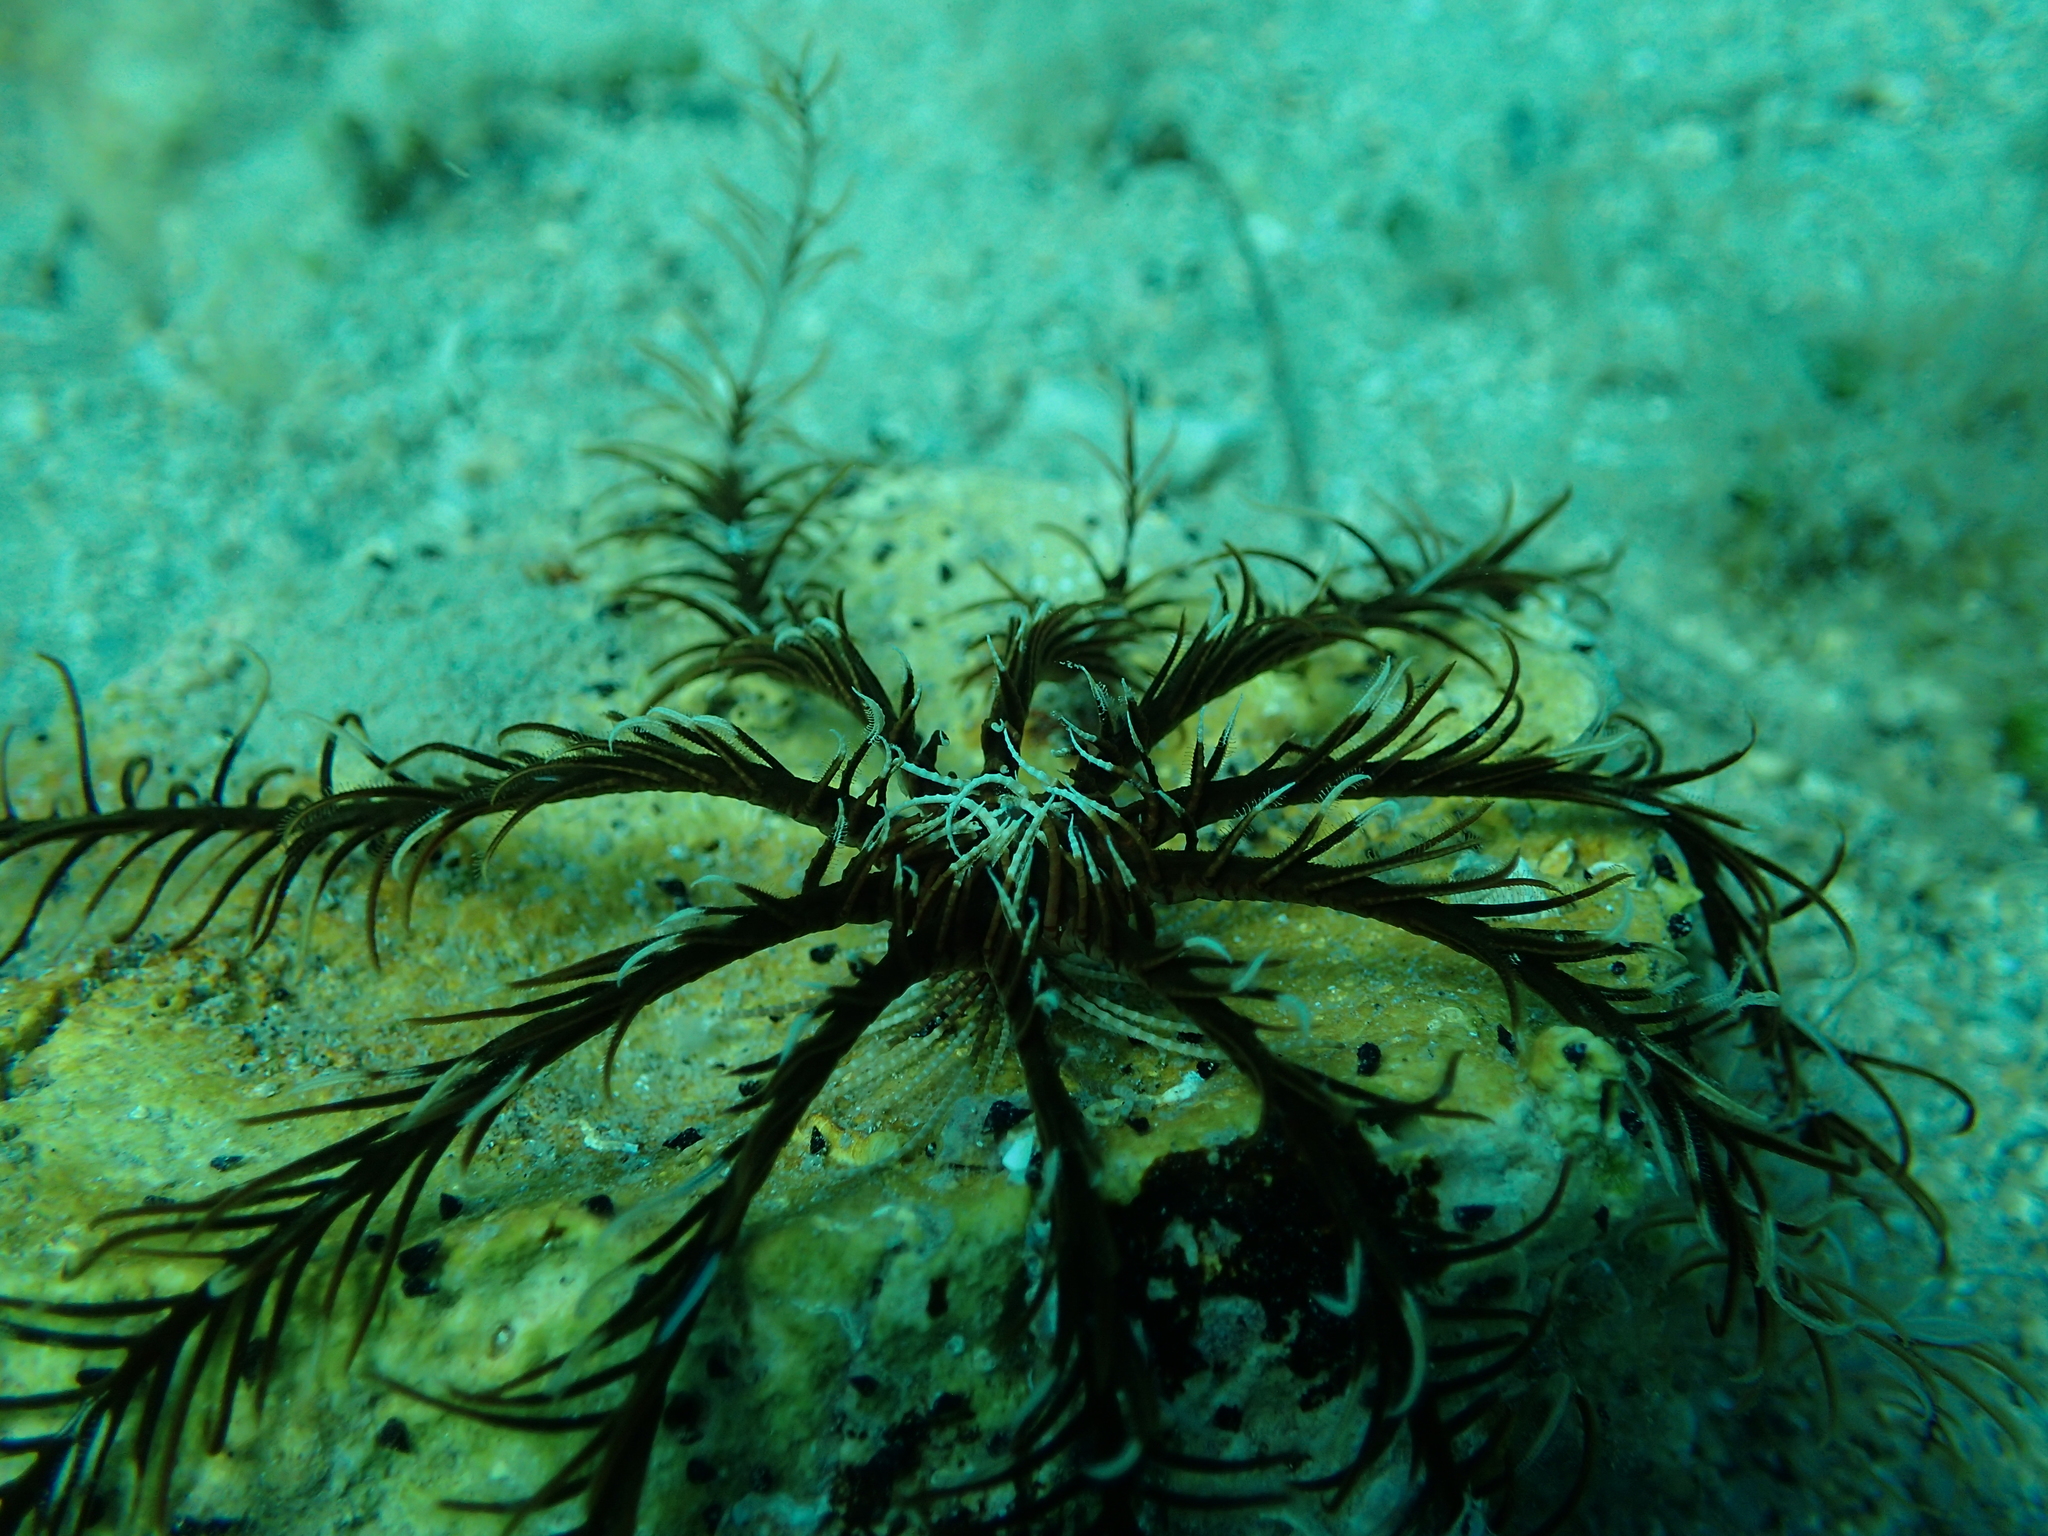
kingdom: Animalia
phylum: Echinodermata
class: Crinoidea
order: Comatulida
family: Antedonidae
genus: Antedon
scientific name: Antedon mediterranea
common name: Feather star
